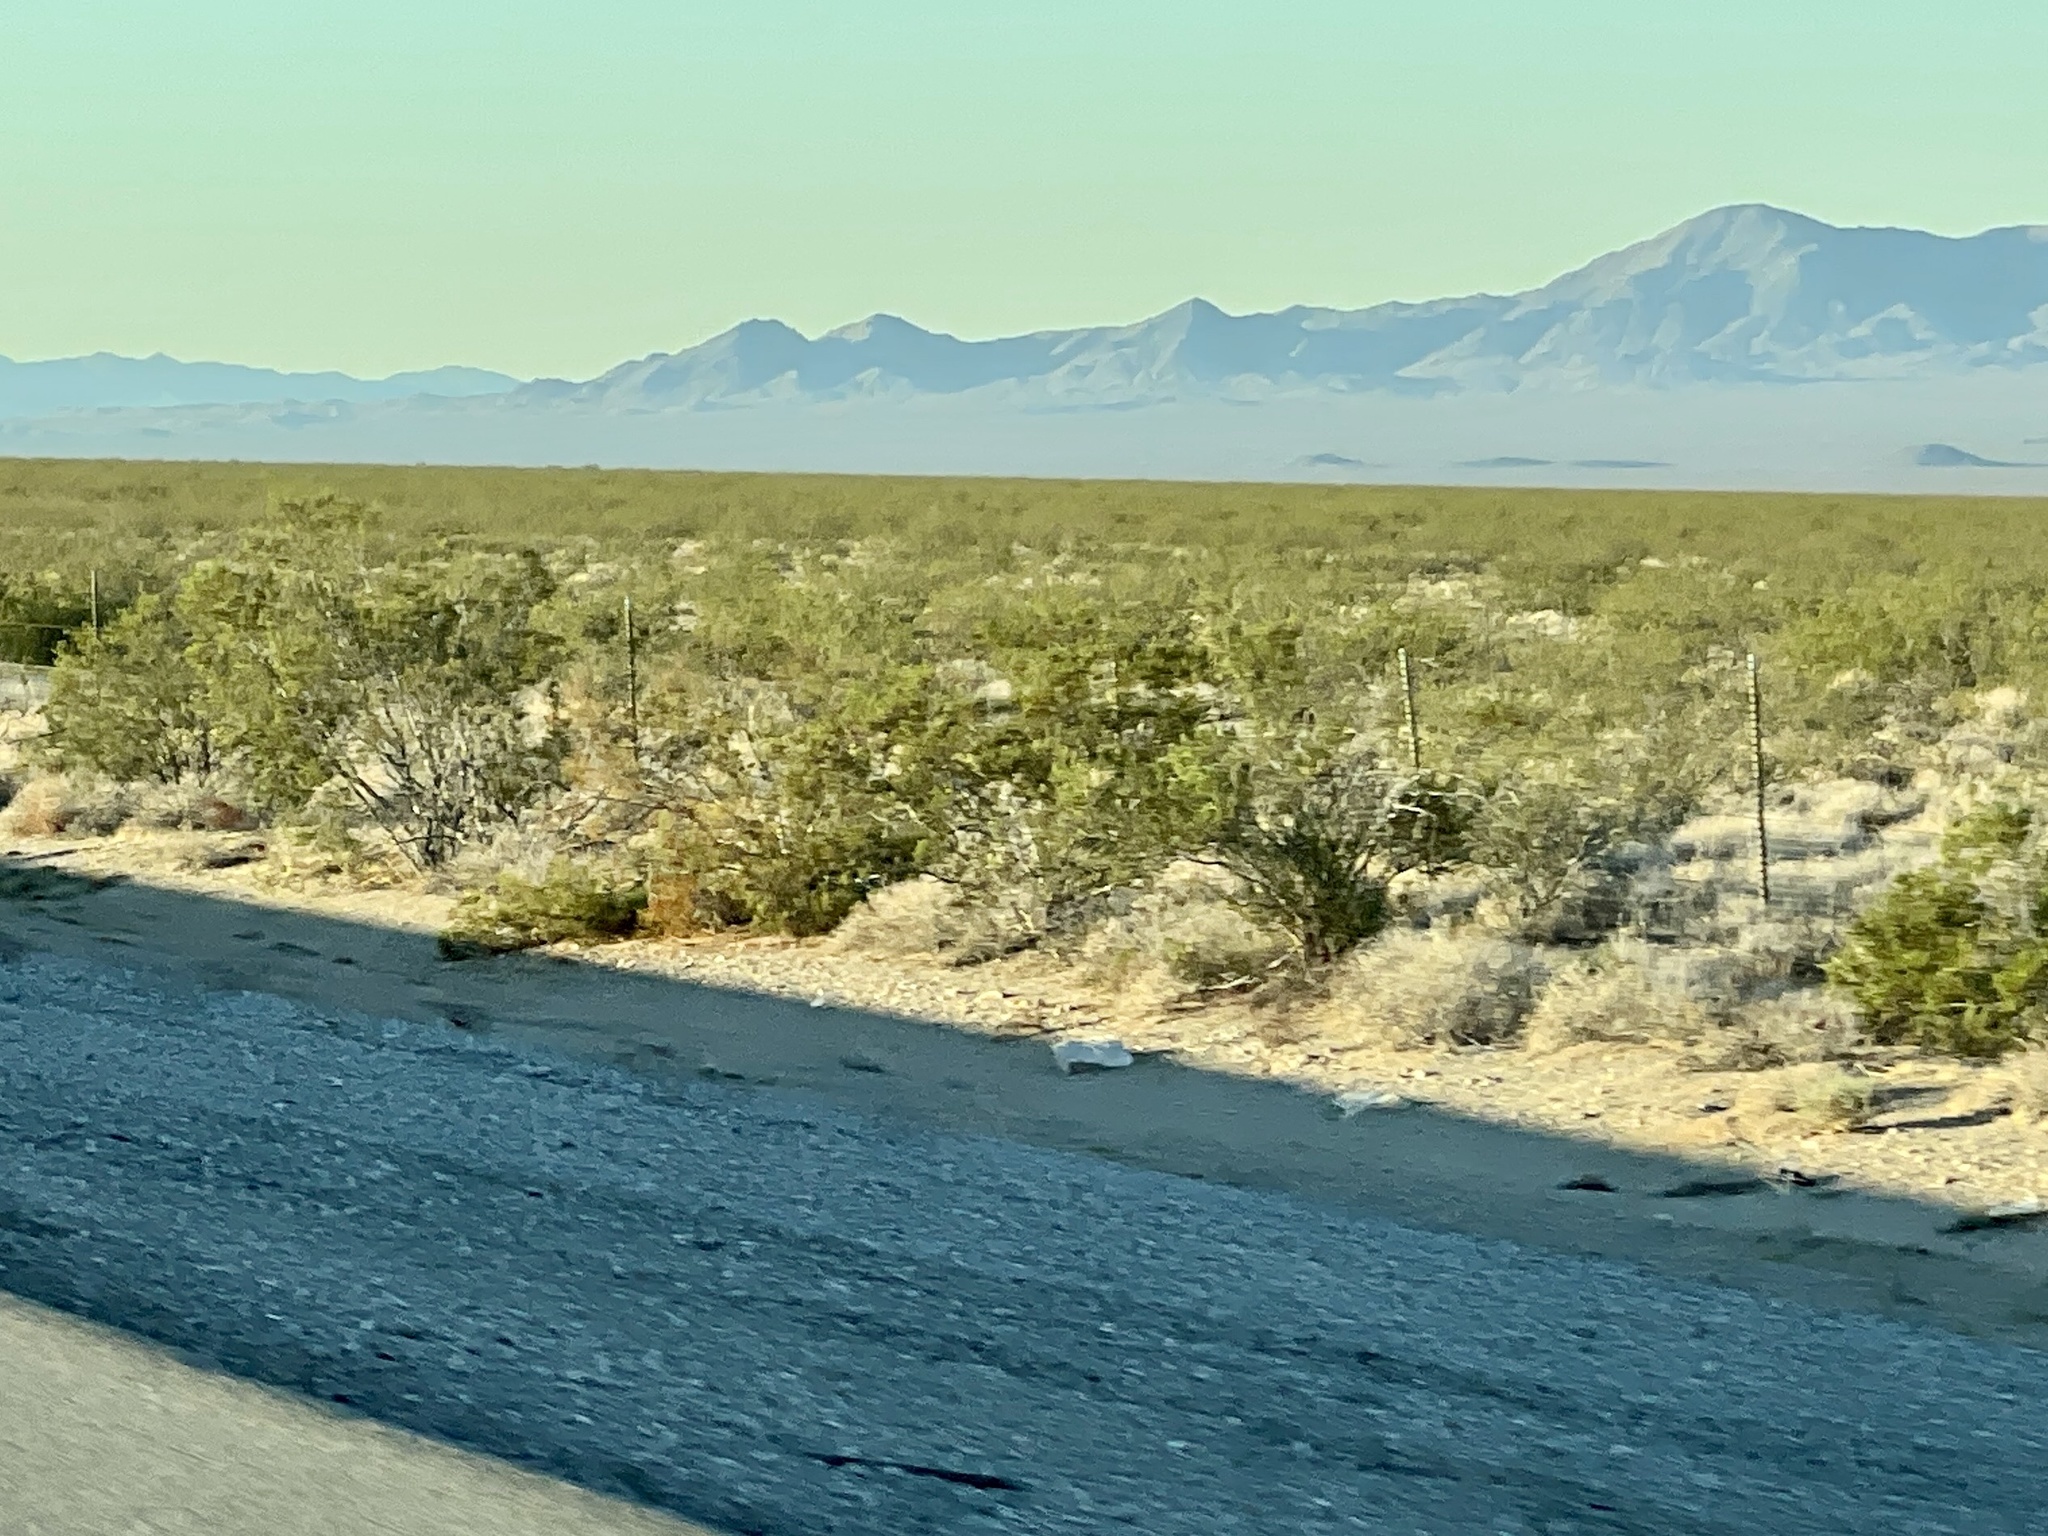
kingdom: Plantae
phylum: Tracheophyta
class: Magnoliopsida
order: Zygophyllales
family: Zygophyllaceae
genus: Larrea
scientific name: Larrea tridentata
